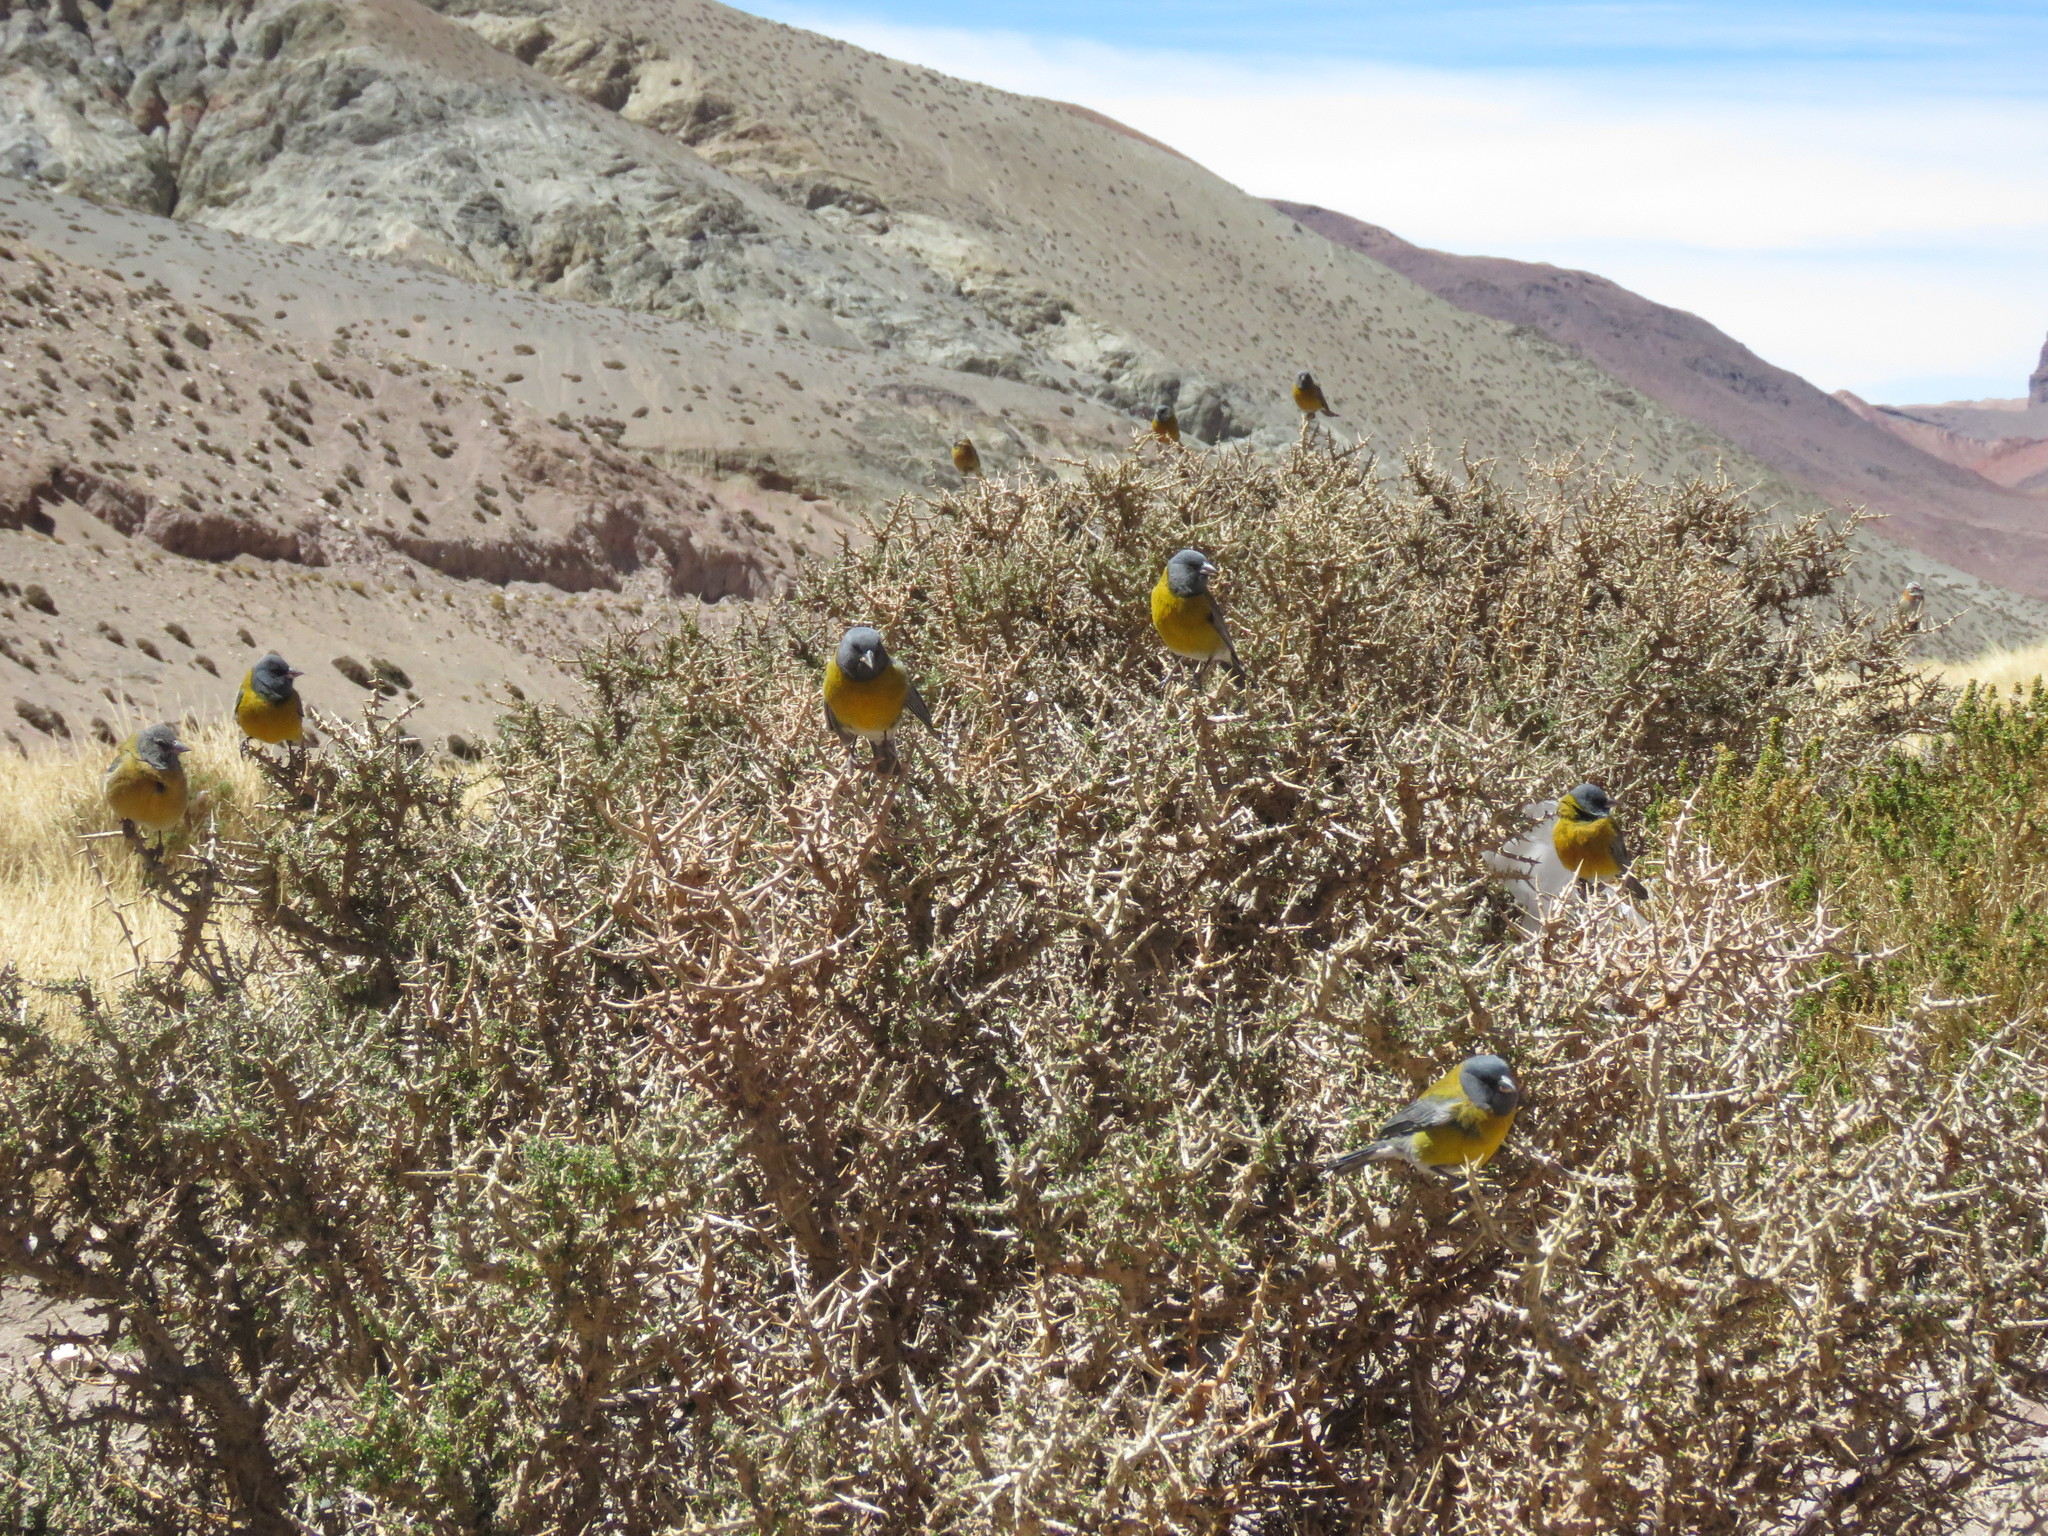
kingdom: Animalia
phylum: Chordata
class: Aves
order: Passeriformes
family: Thraupidae
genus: Phrygilus
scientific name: Phrygilus gayi
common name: Grey-hooded sierra finch
